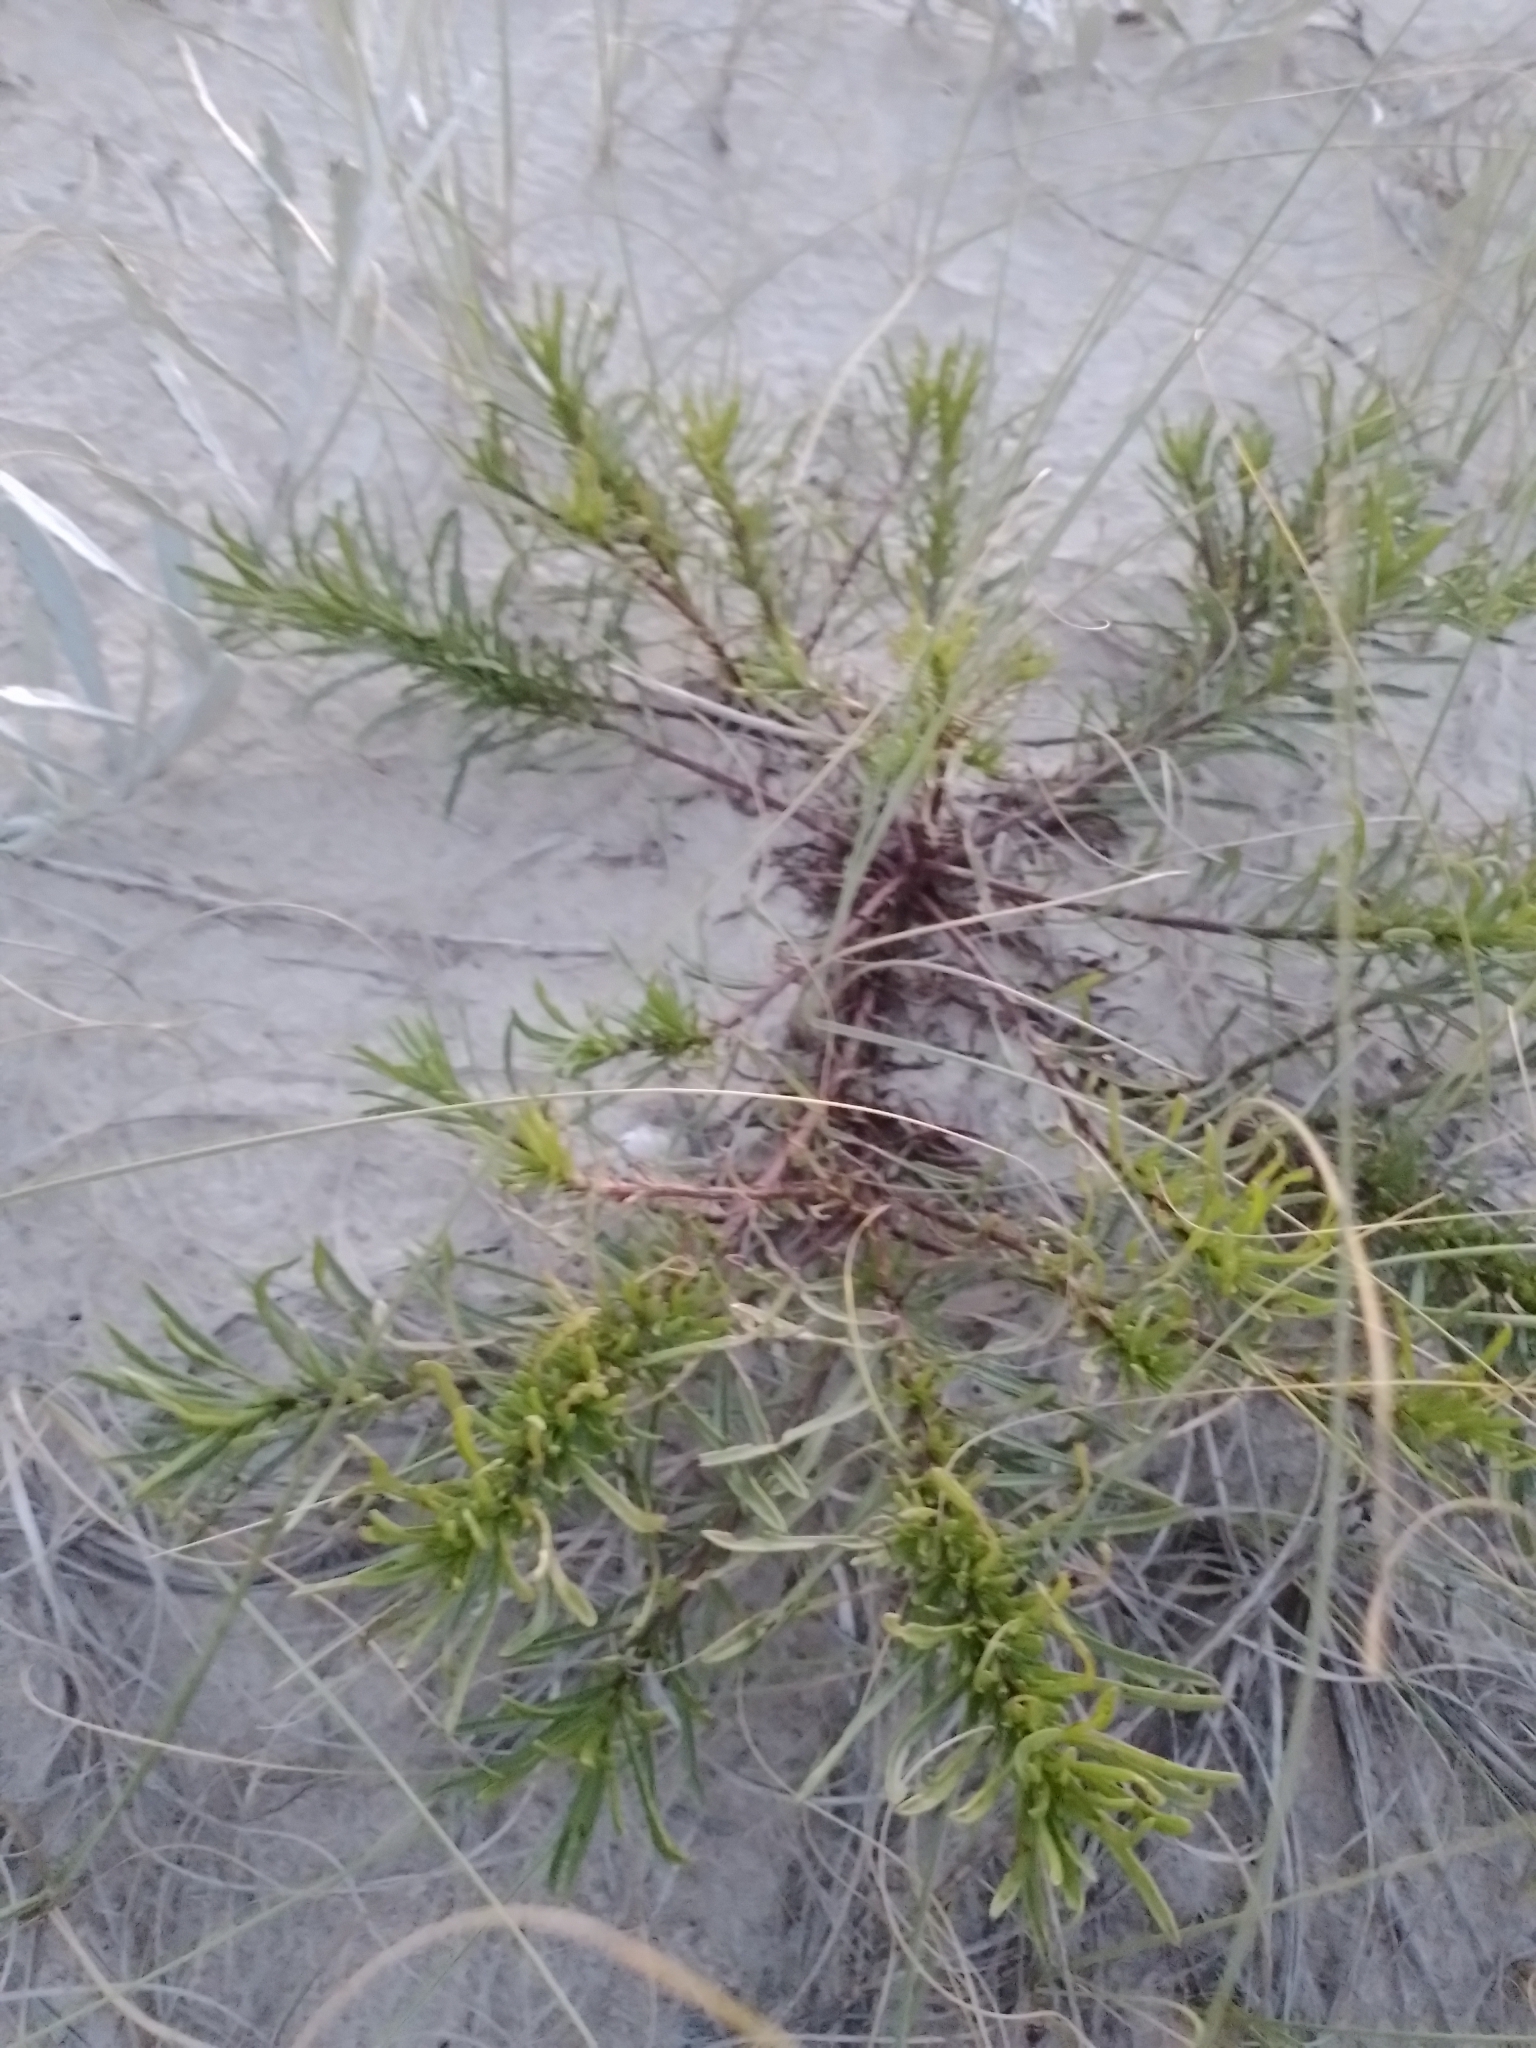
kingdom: Plantae
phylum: Tracheophyta
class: Magnoliopsida
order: Asterales
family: Asteraceae
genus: Erigeron
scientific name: Erigeron blakei
